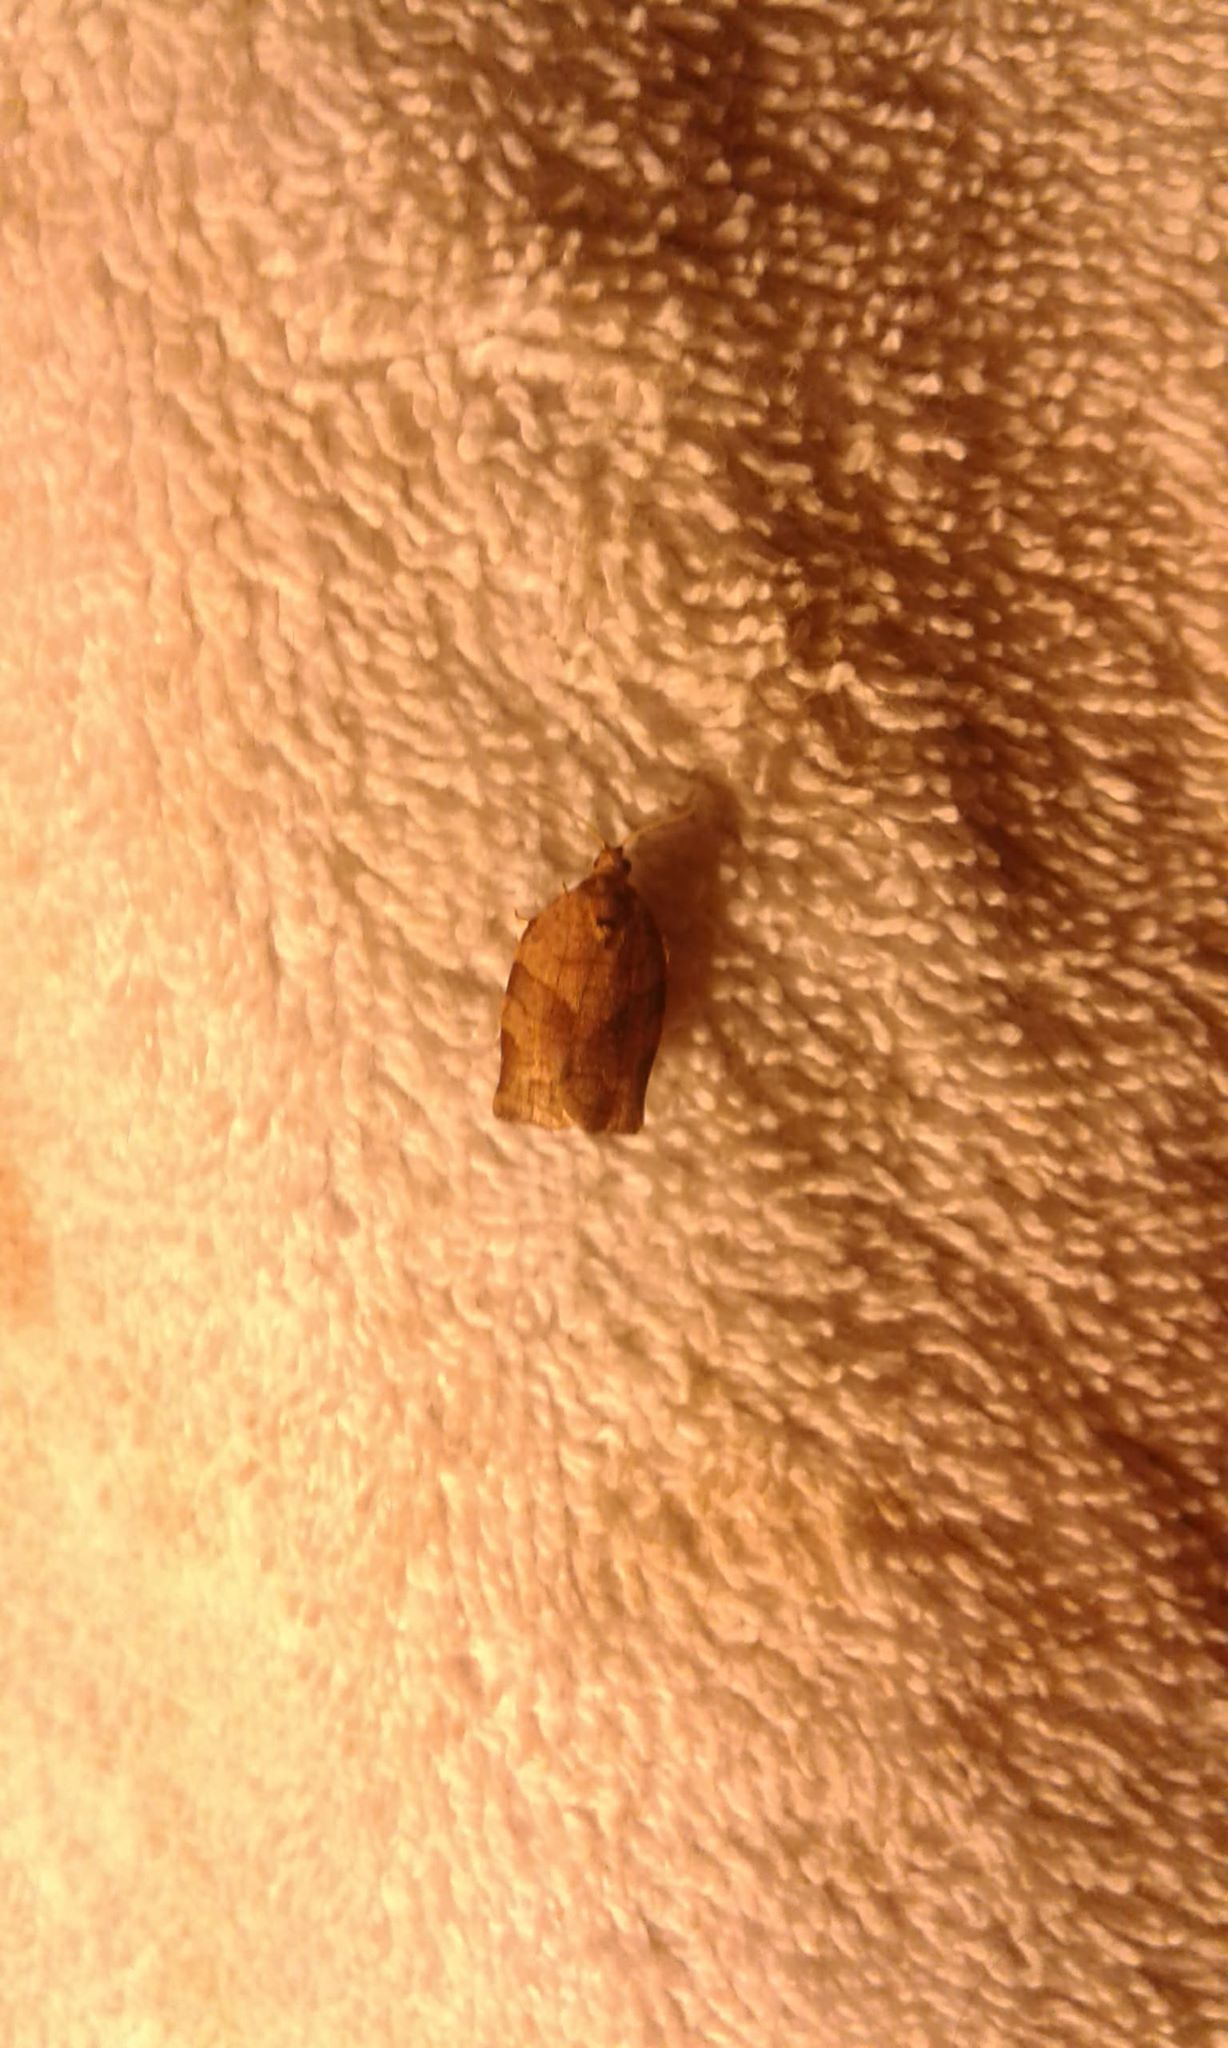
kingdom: Animalia
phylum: Arthropoda
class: Insecta
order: Lepidoptera
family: Tortricidae
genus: Choristoneura
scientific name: Choristoneura rosaceana
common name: Oblique-banded leafroller moth
